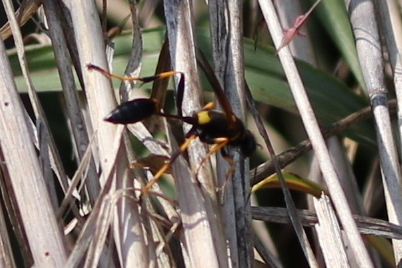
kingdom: Animalia
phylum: Arthropoda
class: Insecta
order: Hymenoptera
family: Sphecidae
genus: Sceliphron
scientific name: Sceliphron caementarium
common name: Mud dauber
